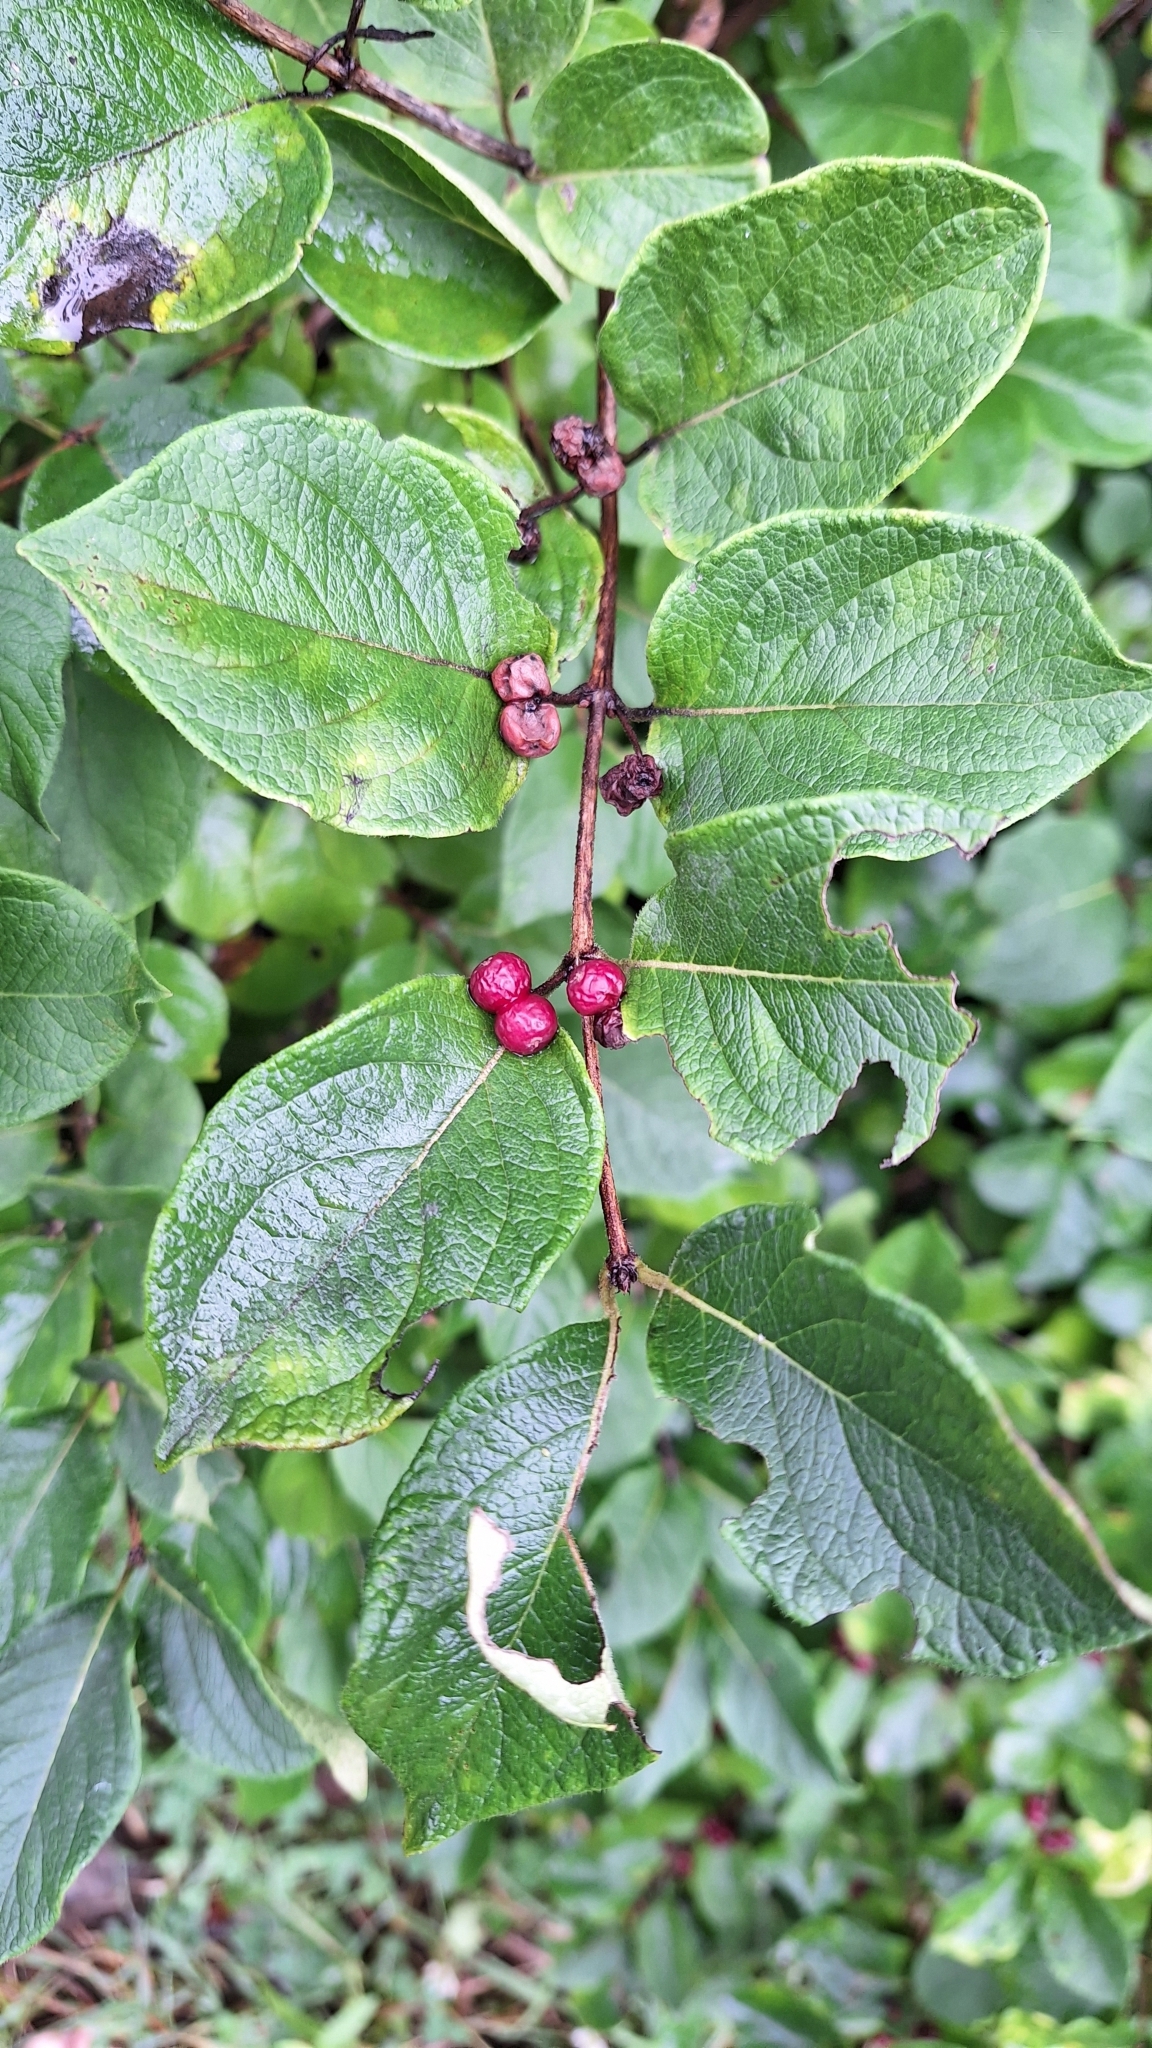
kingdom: Plantae
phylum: Tracheophyta
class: Magnoliopsida
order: Dipsacales
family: Caprifoliaceae
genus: Lonicera
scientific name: Lonicera ruprechtiana
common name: Manchurian honeysuckle
